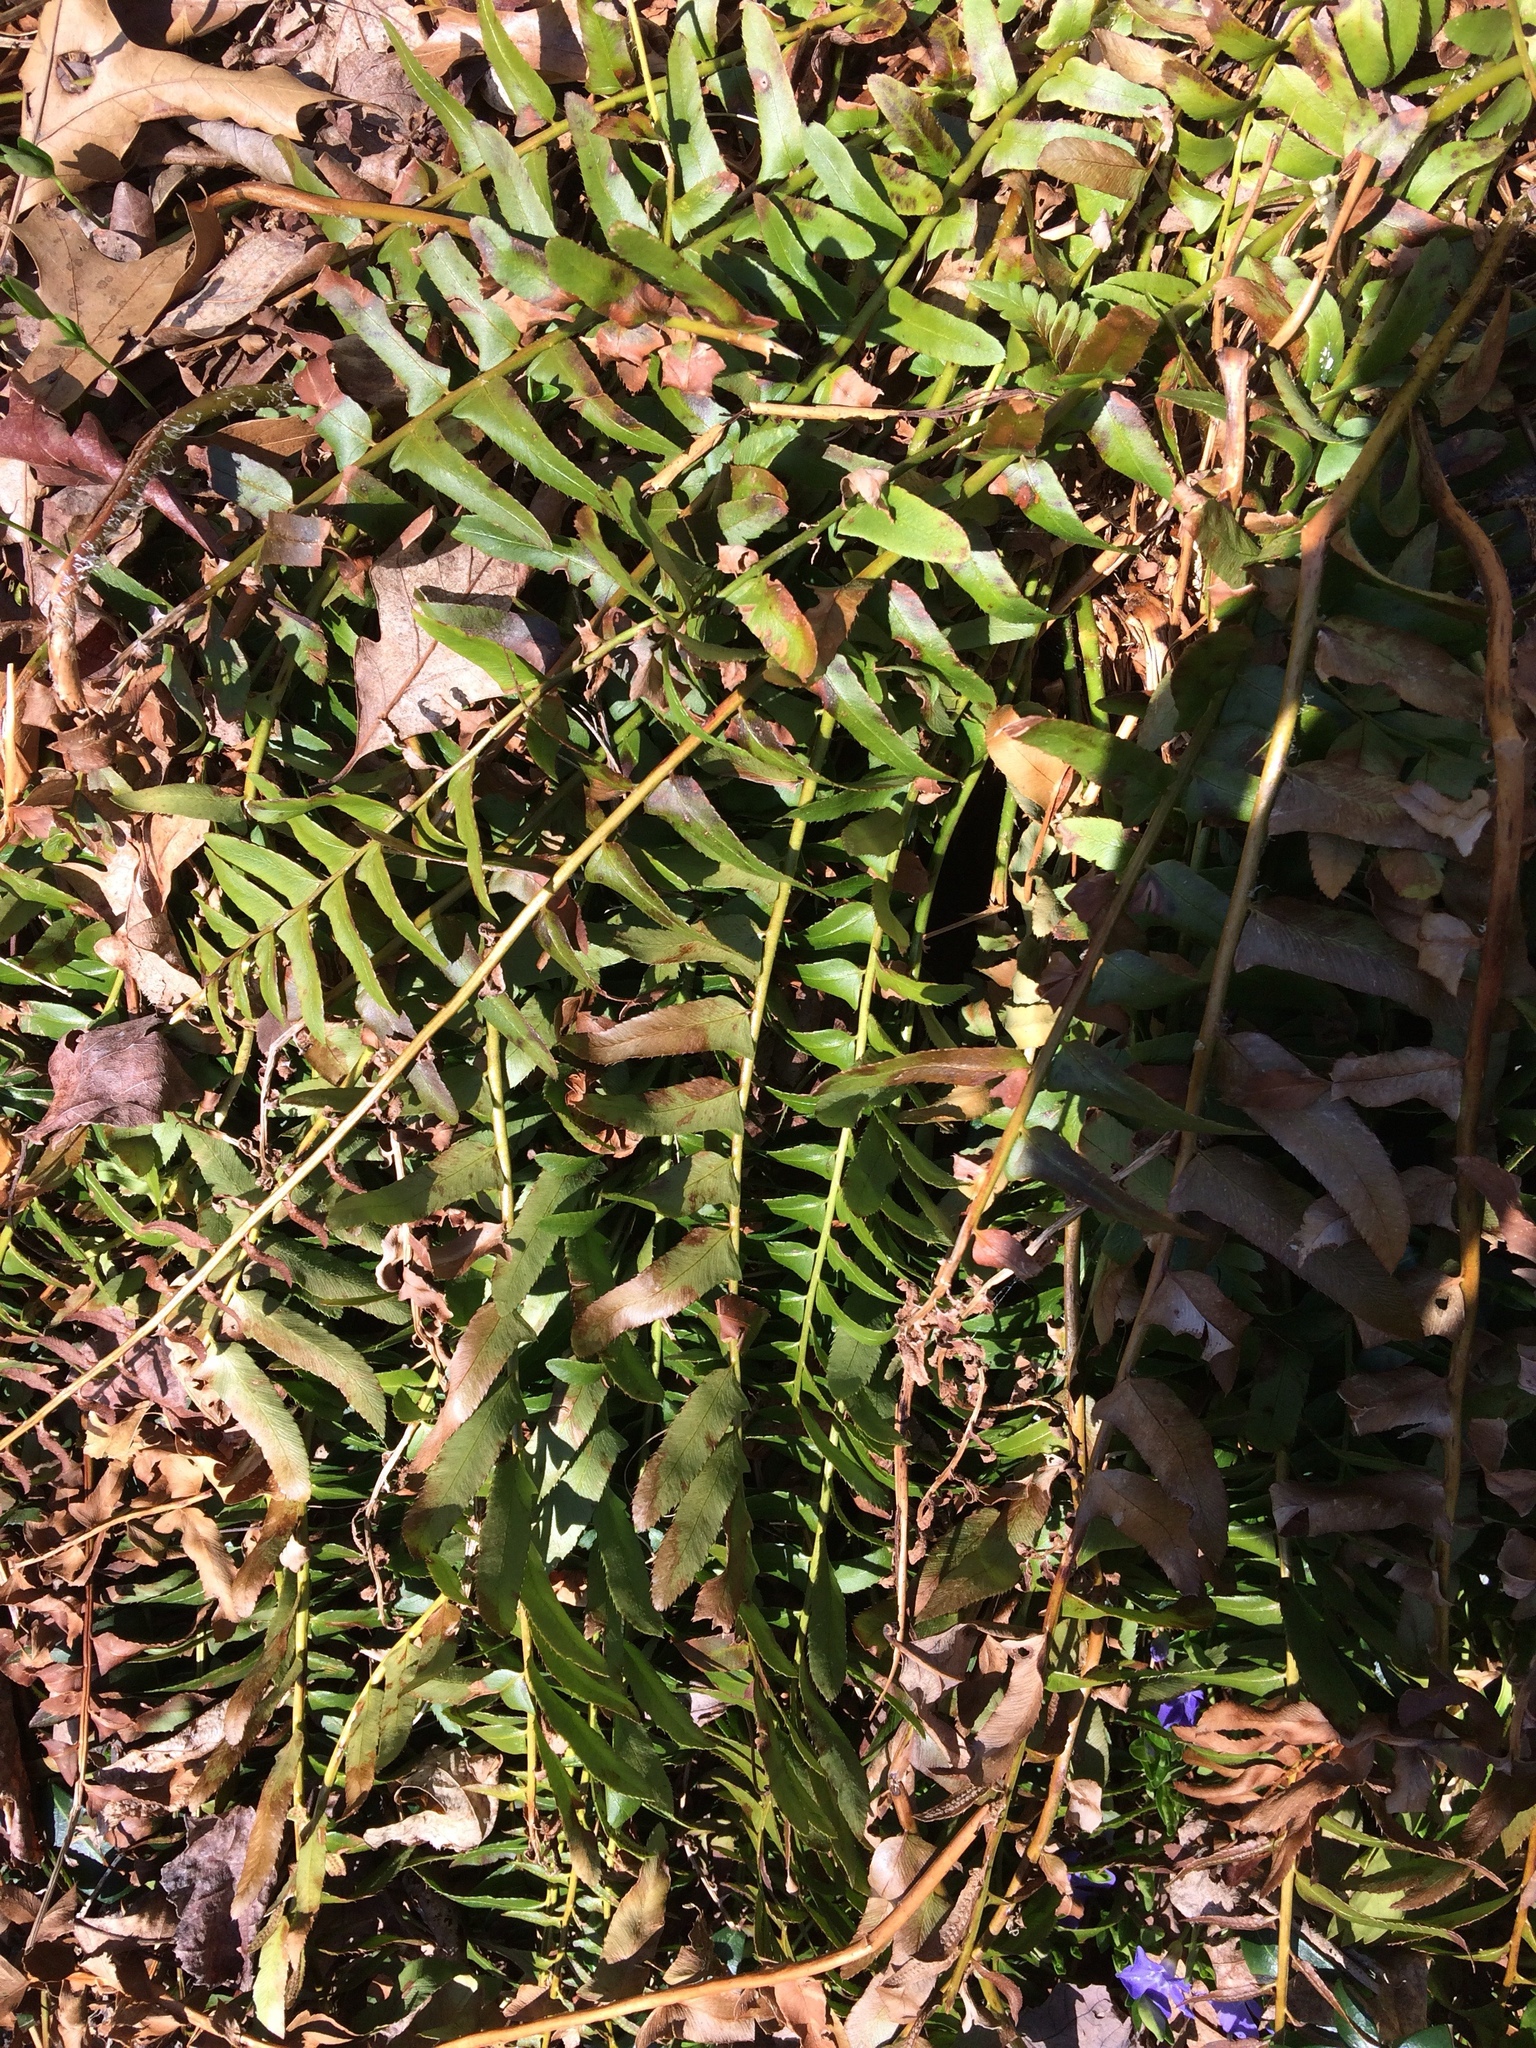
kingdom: Plantae
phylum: Tracheophyta
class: Polypodiopsida
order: Polypodiales
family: Dryopteridaceae
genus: Polystichum
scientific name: Polystichum acrostichoides
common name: Christmas fern
